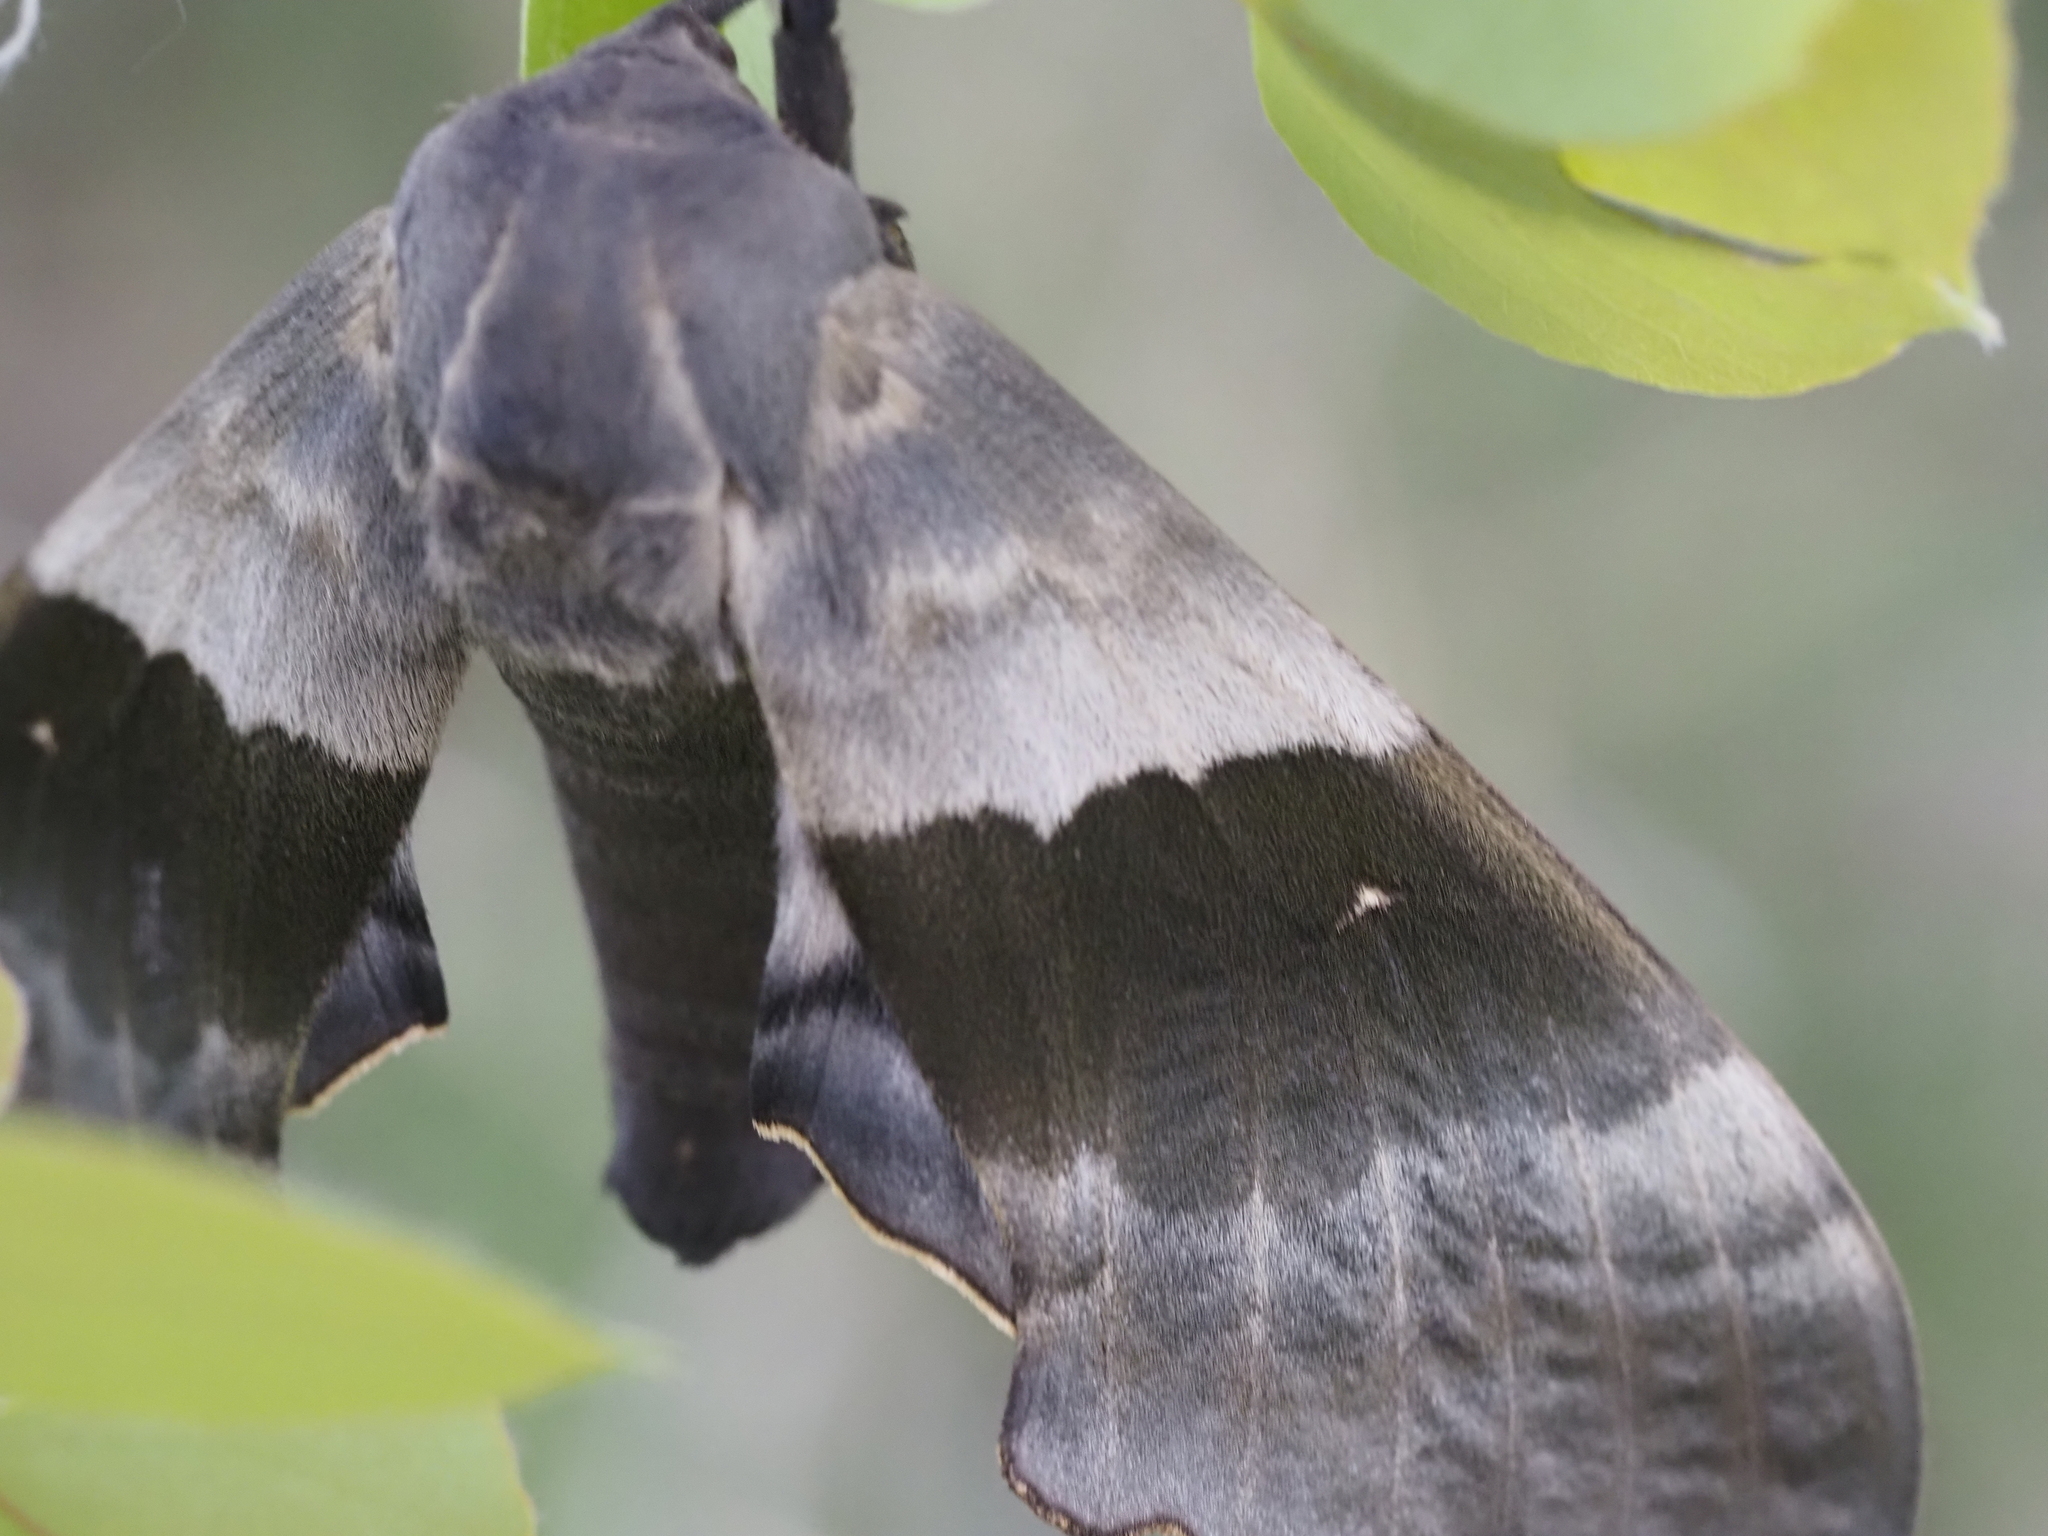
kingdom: Animalia
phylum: Arthropoda
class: Insecta
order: Lepidoptera
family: Sphingidae
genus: Pachysphinx
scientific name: Pachysphinx modesta
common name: Big poplar sphinx
